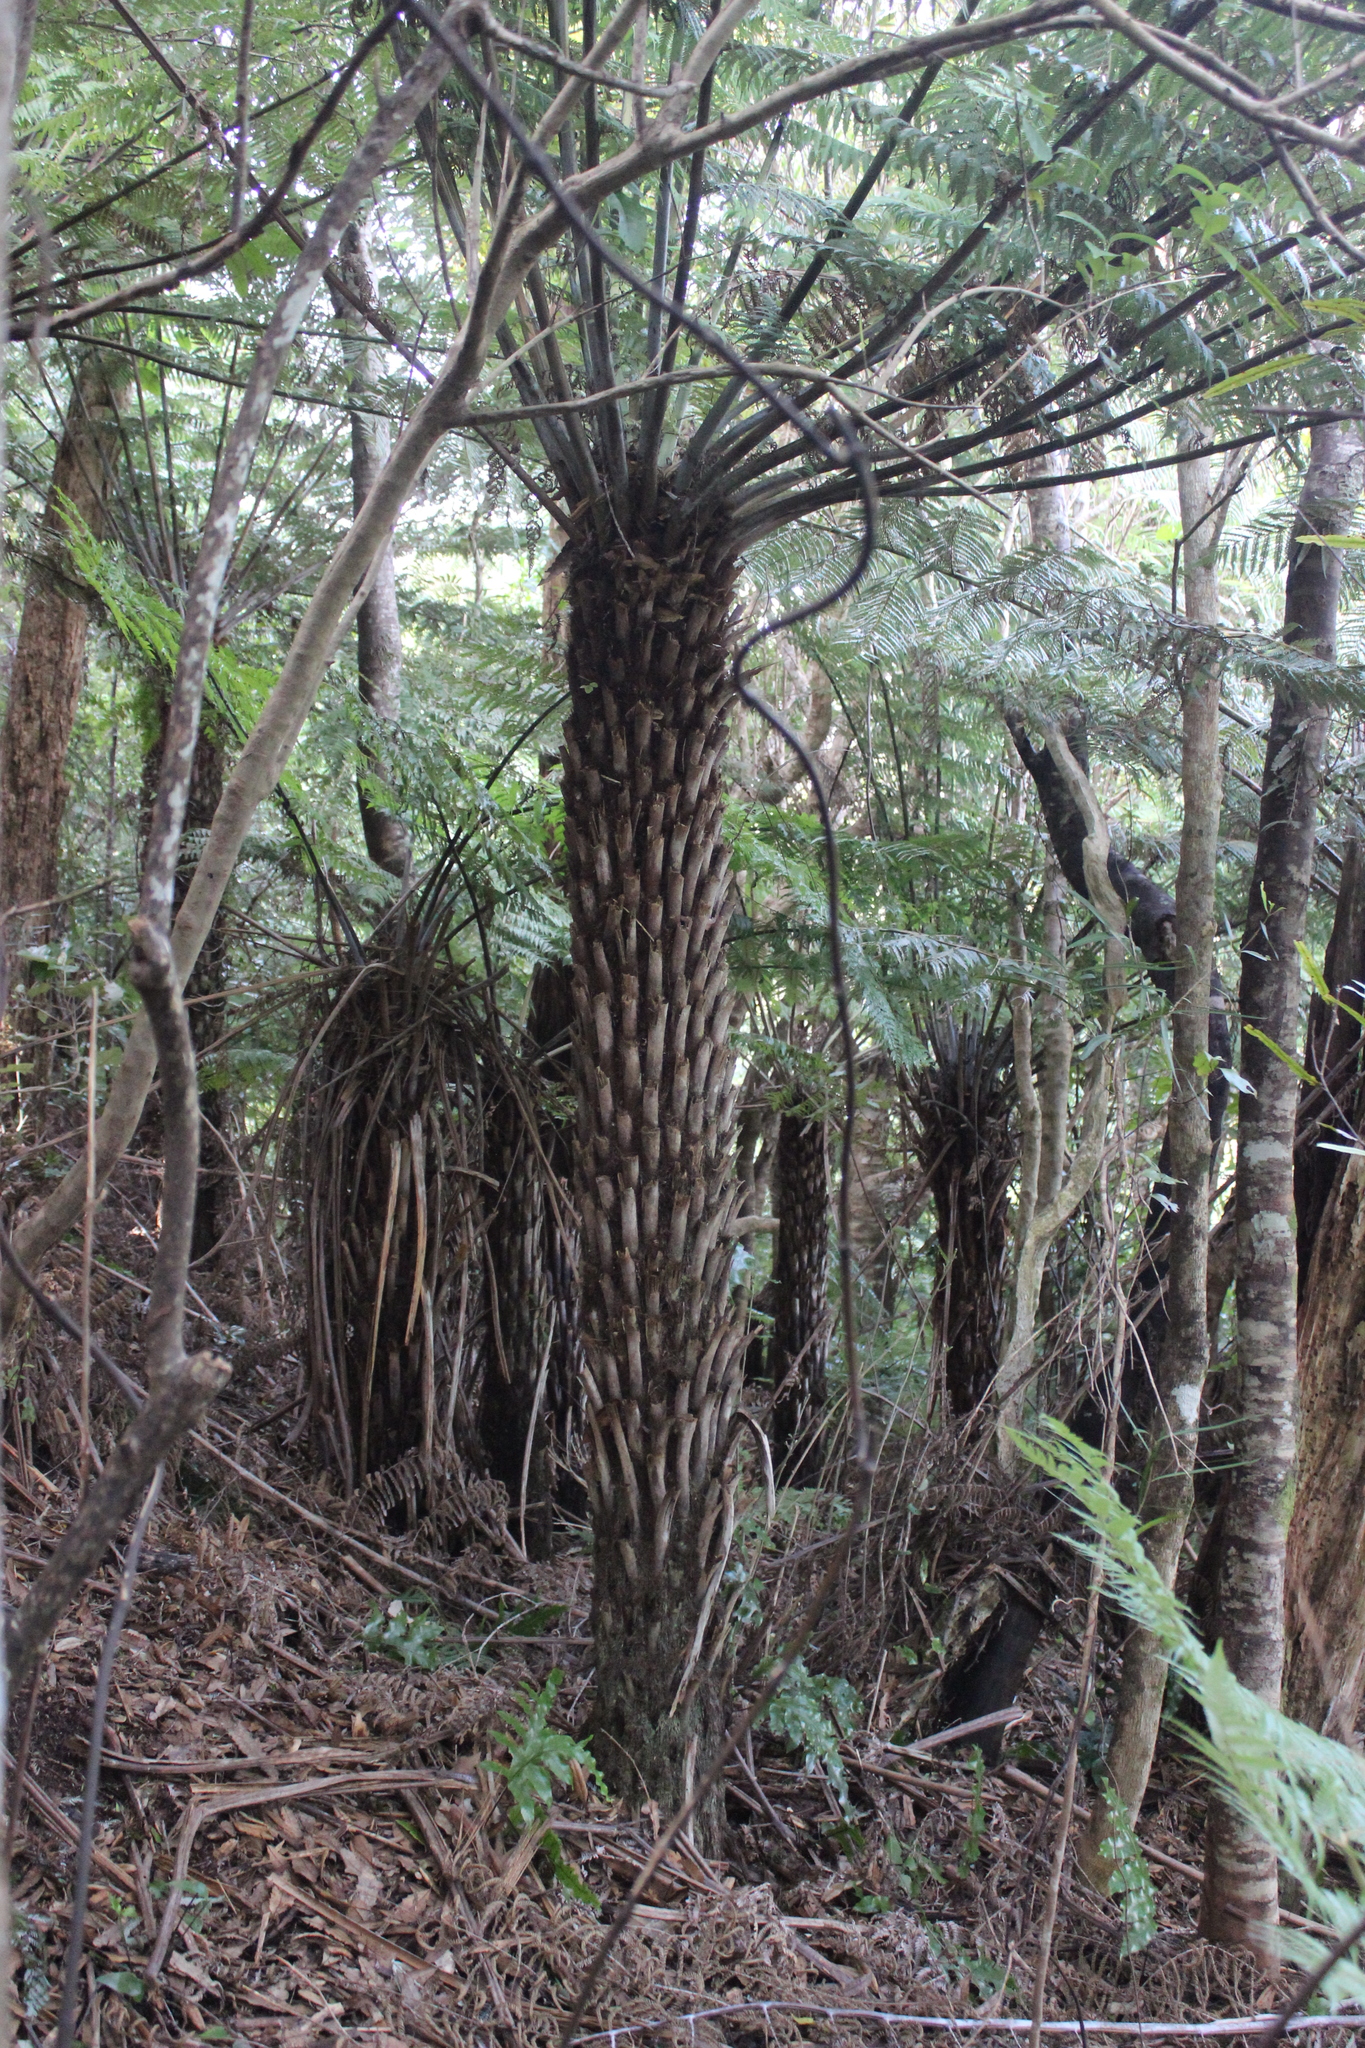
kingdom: Plantae
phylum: Tracheophyta
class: Polypodiopsida
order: Cyatheales
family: Cyatheaceae
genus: Alsophila
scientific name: Alsophila dealbata
